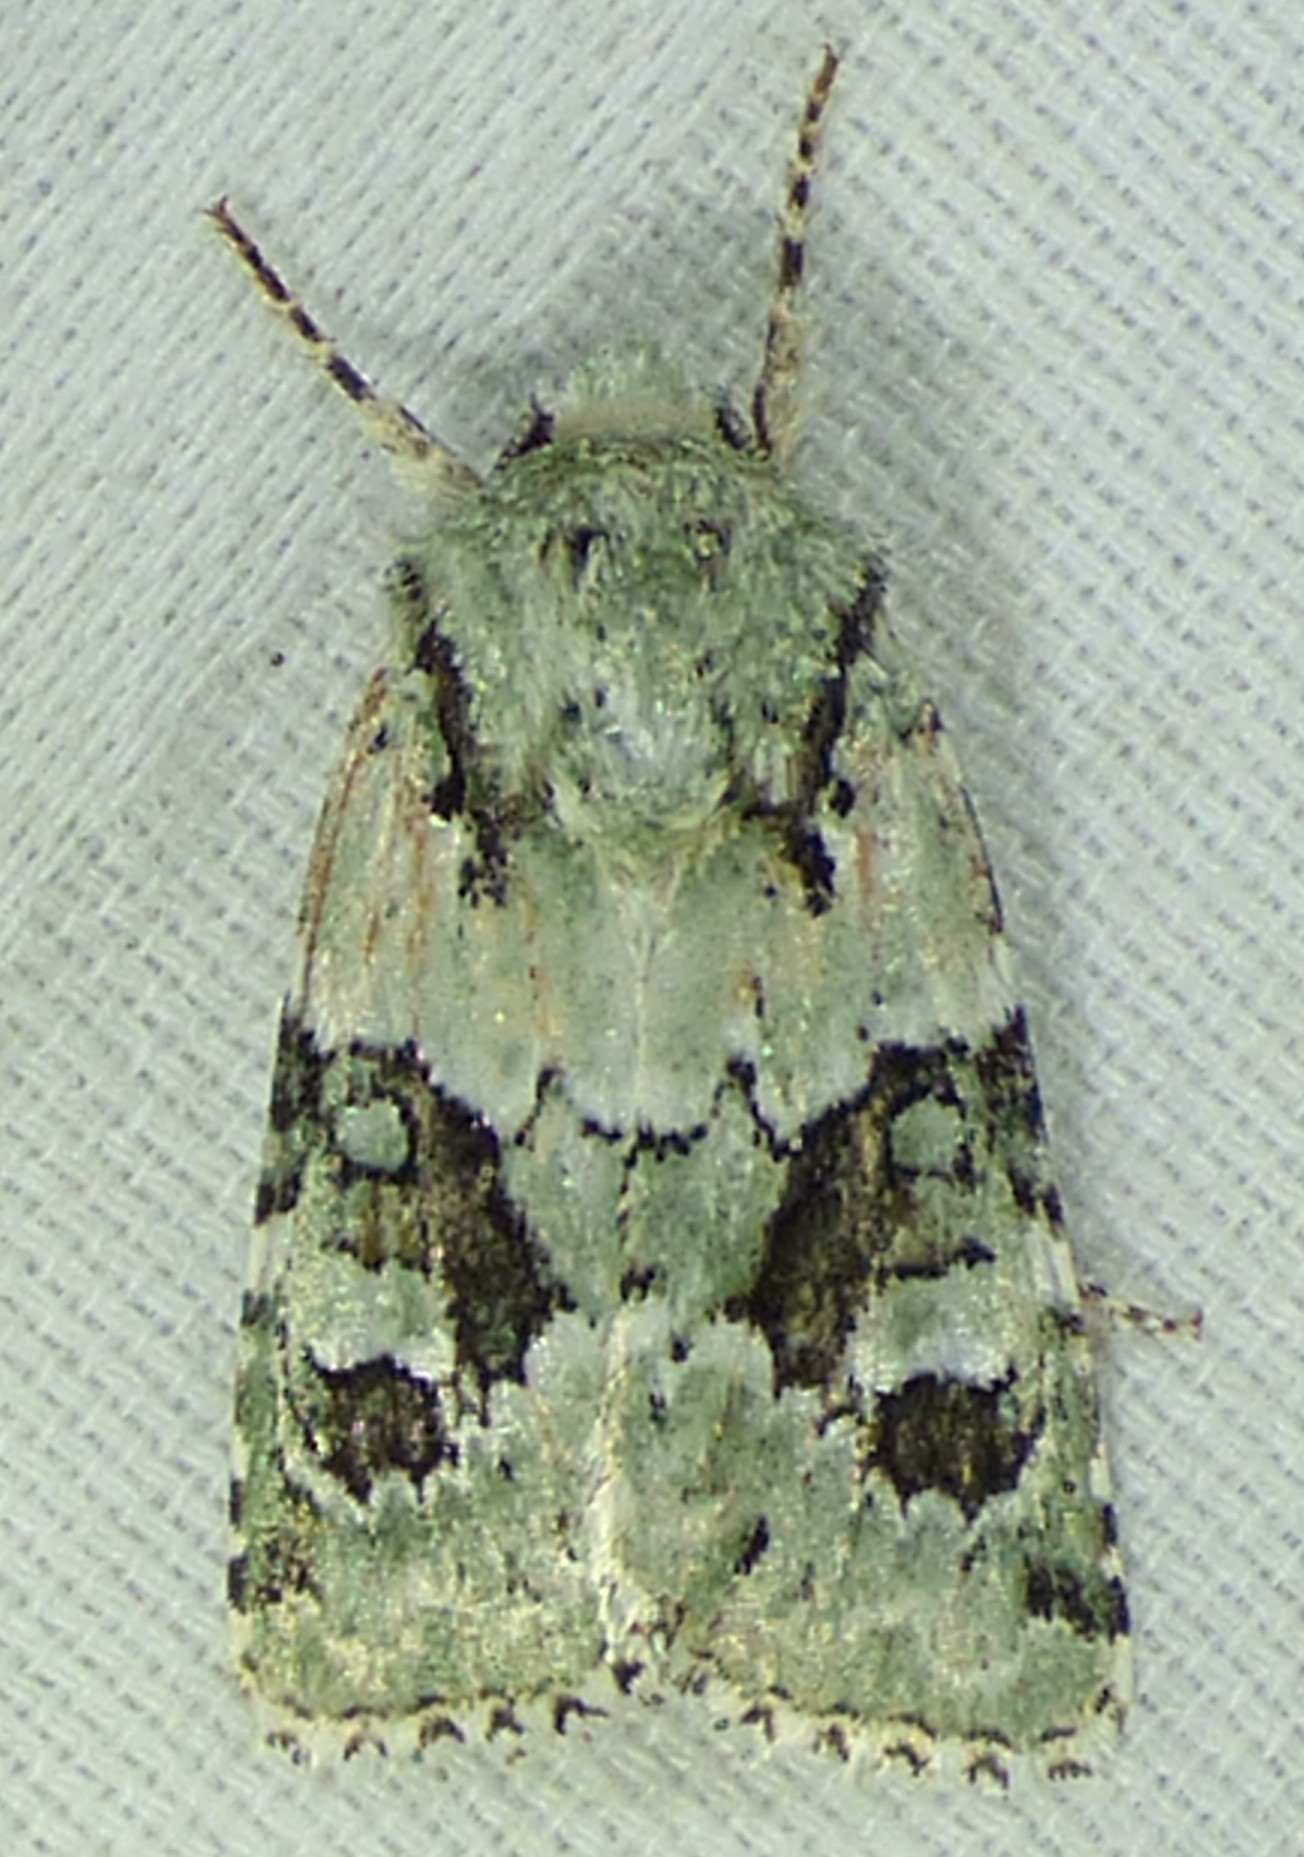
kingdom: Animalia
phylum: Arthropoda
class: Insecta
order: Lepidoptera
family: Noctuidae
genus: Lacinipolia
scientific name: Lacinipolia implicata
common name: Implicit arches
